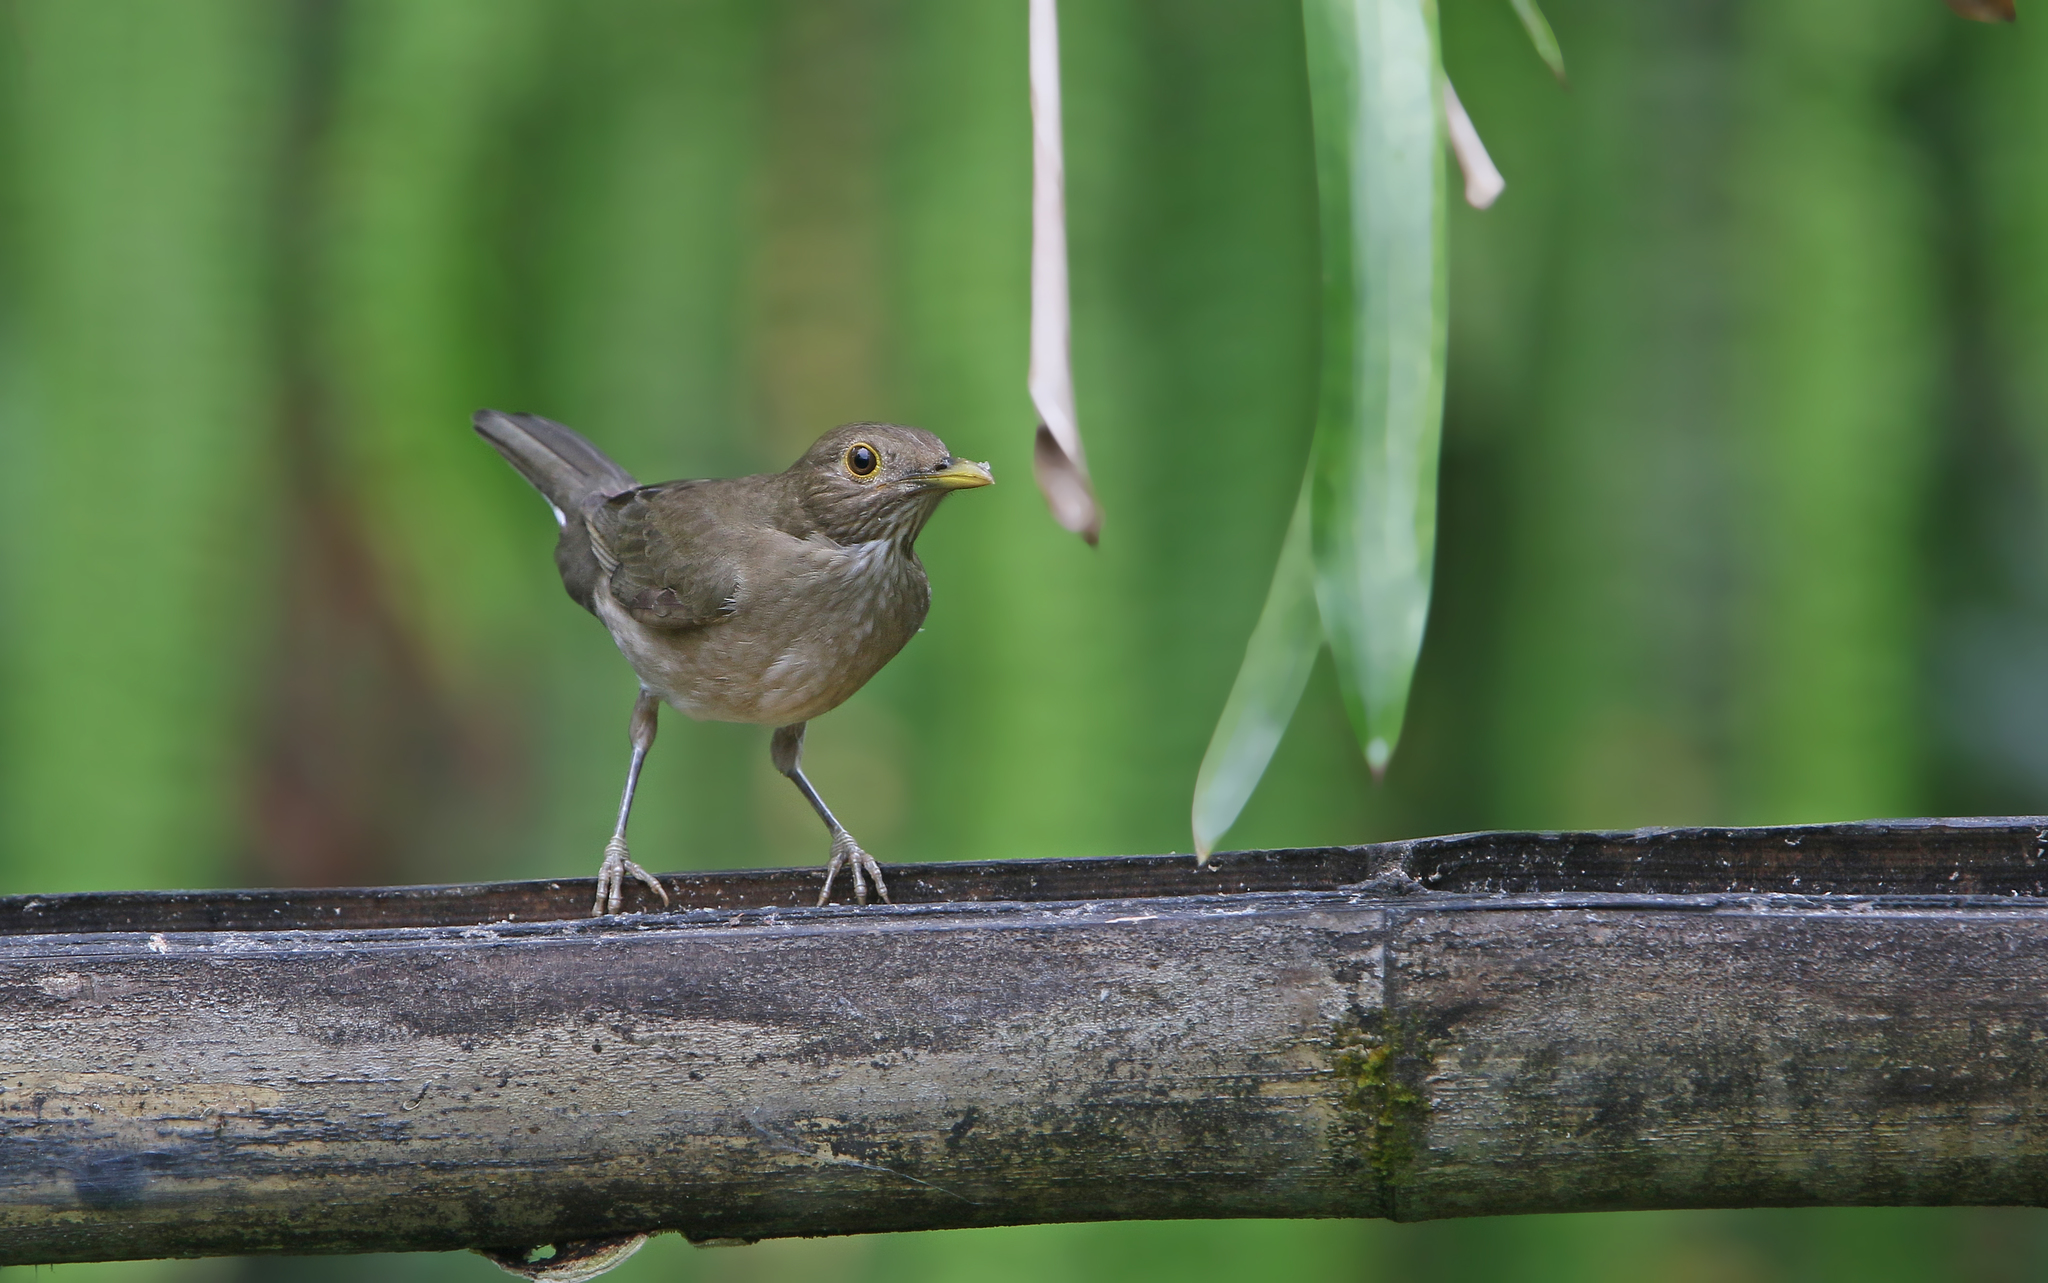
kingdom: Animalia
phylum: Chordata
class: Aves
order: Passeriformes
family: Turdidae
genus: Turdus
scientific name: Turdus maculirostris
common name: Ecuadorian thrush
